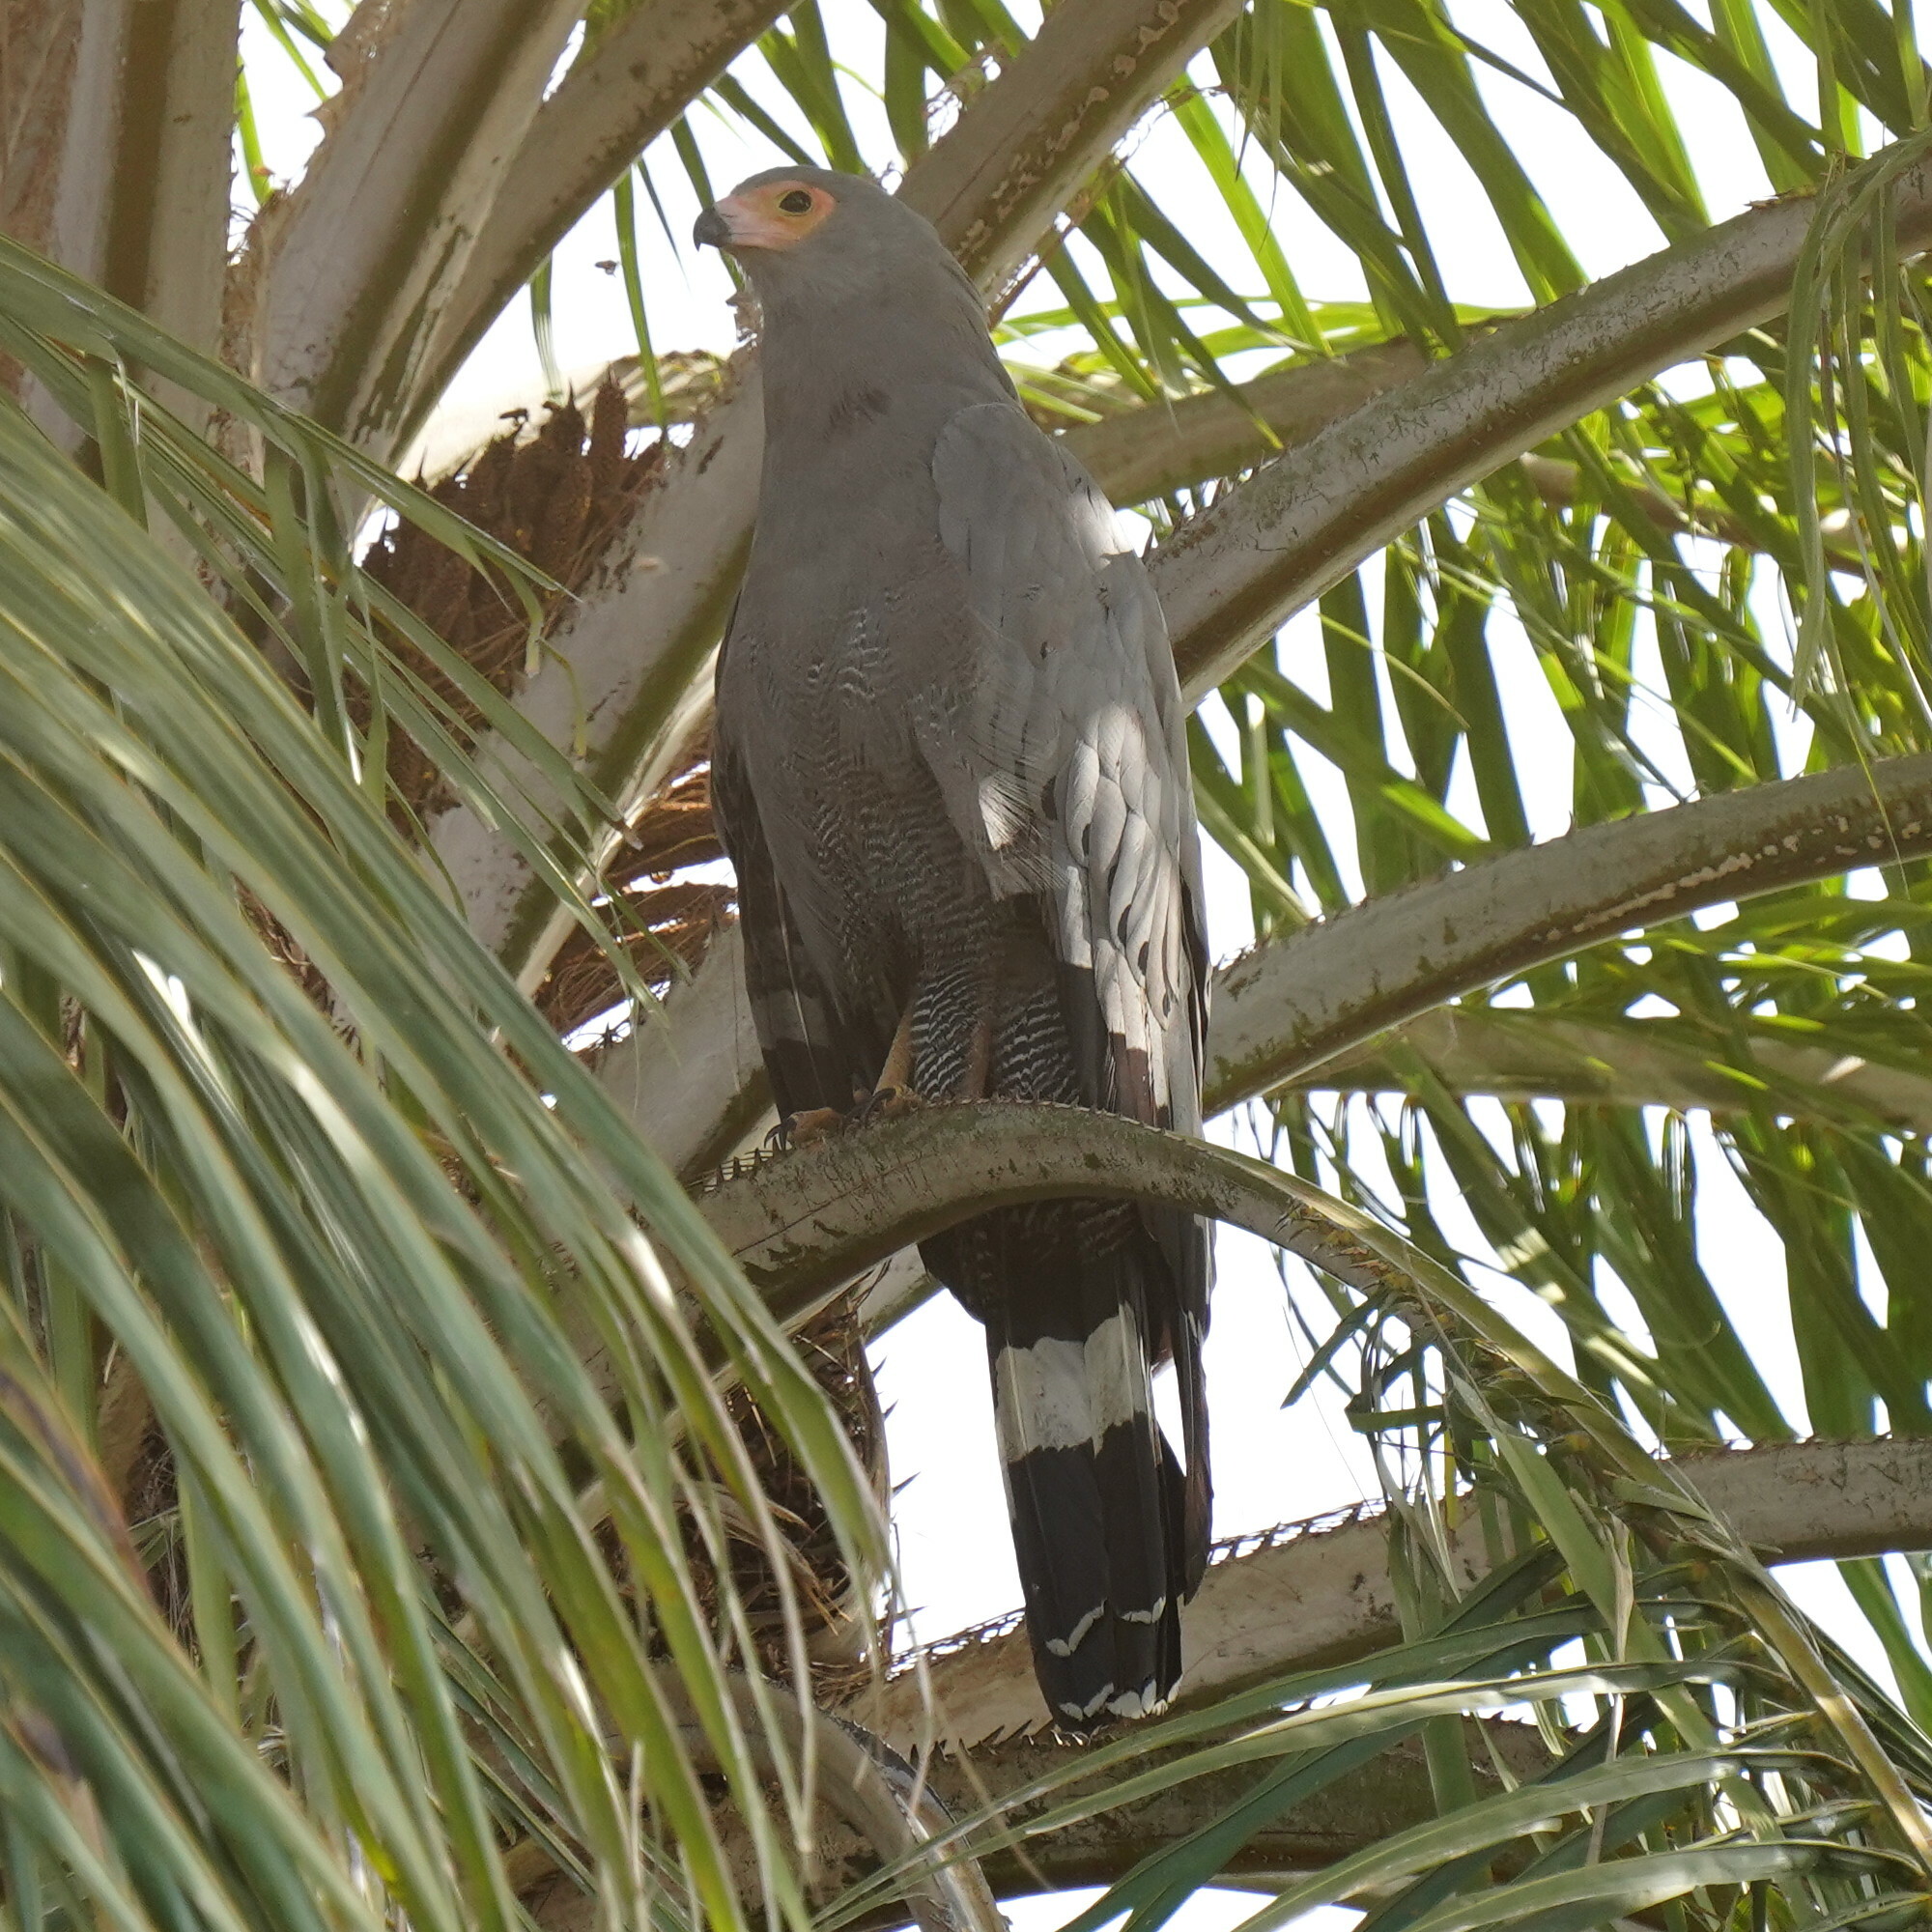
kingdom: Animalia
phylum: Chordata
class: Aves
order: Accipitriformes
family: Accipitridae
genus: Polyboroides
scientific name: Polyboroides typus
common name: African harrier-hawk
